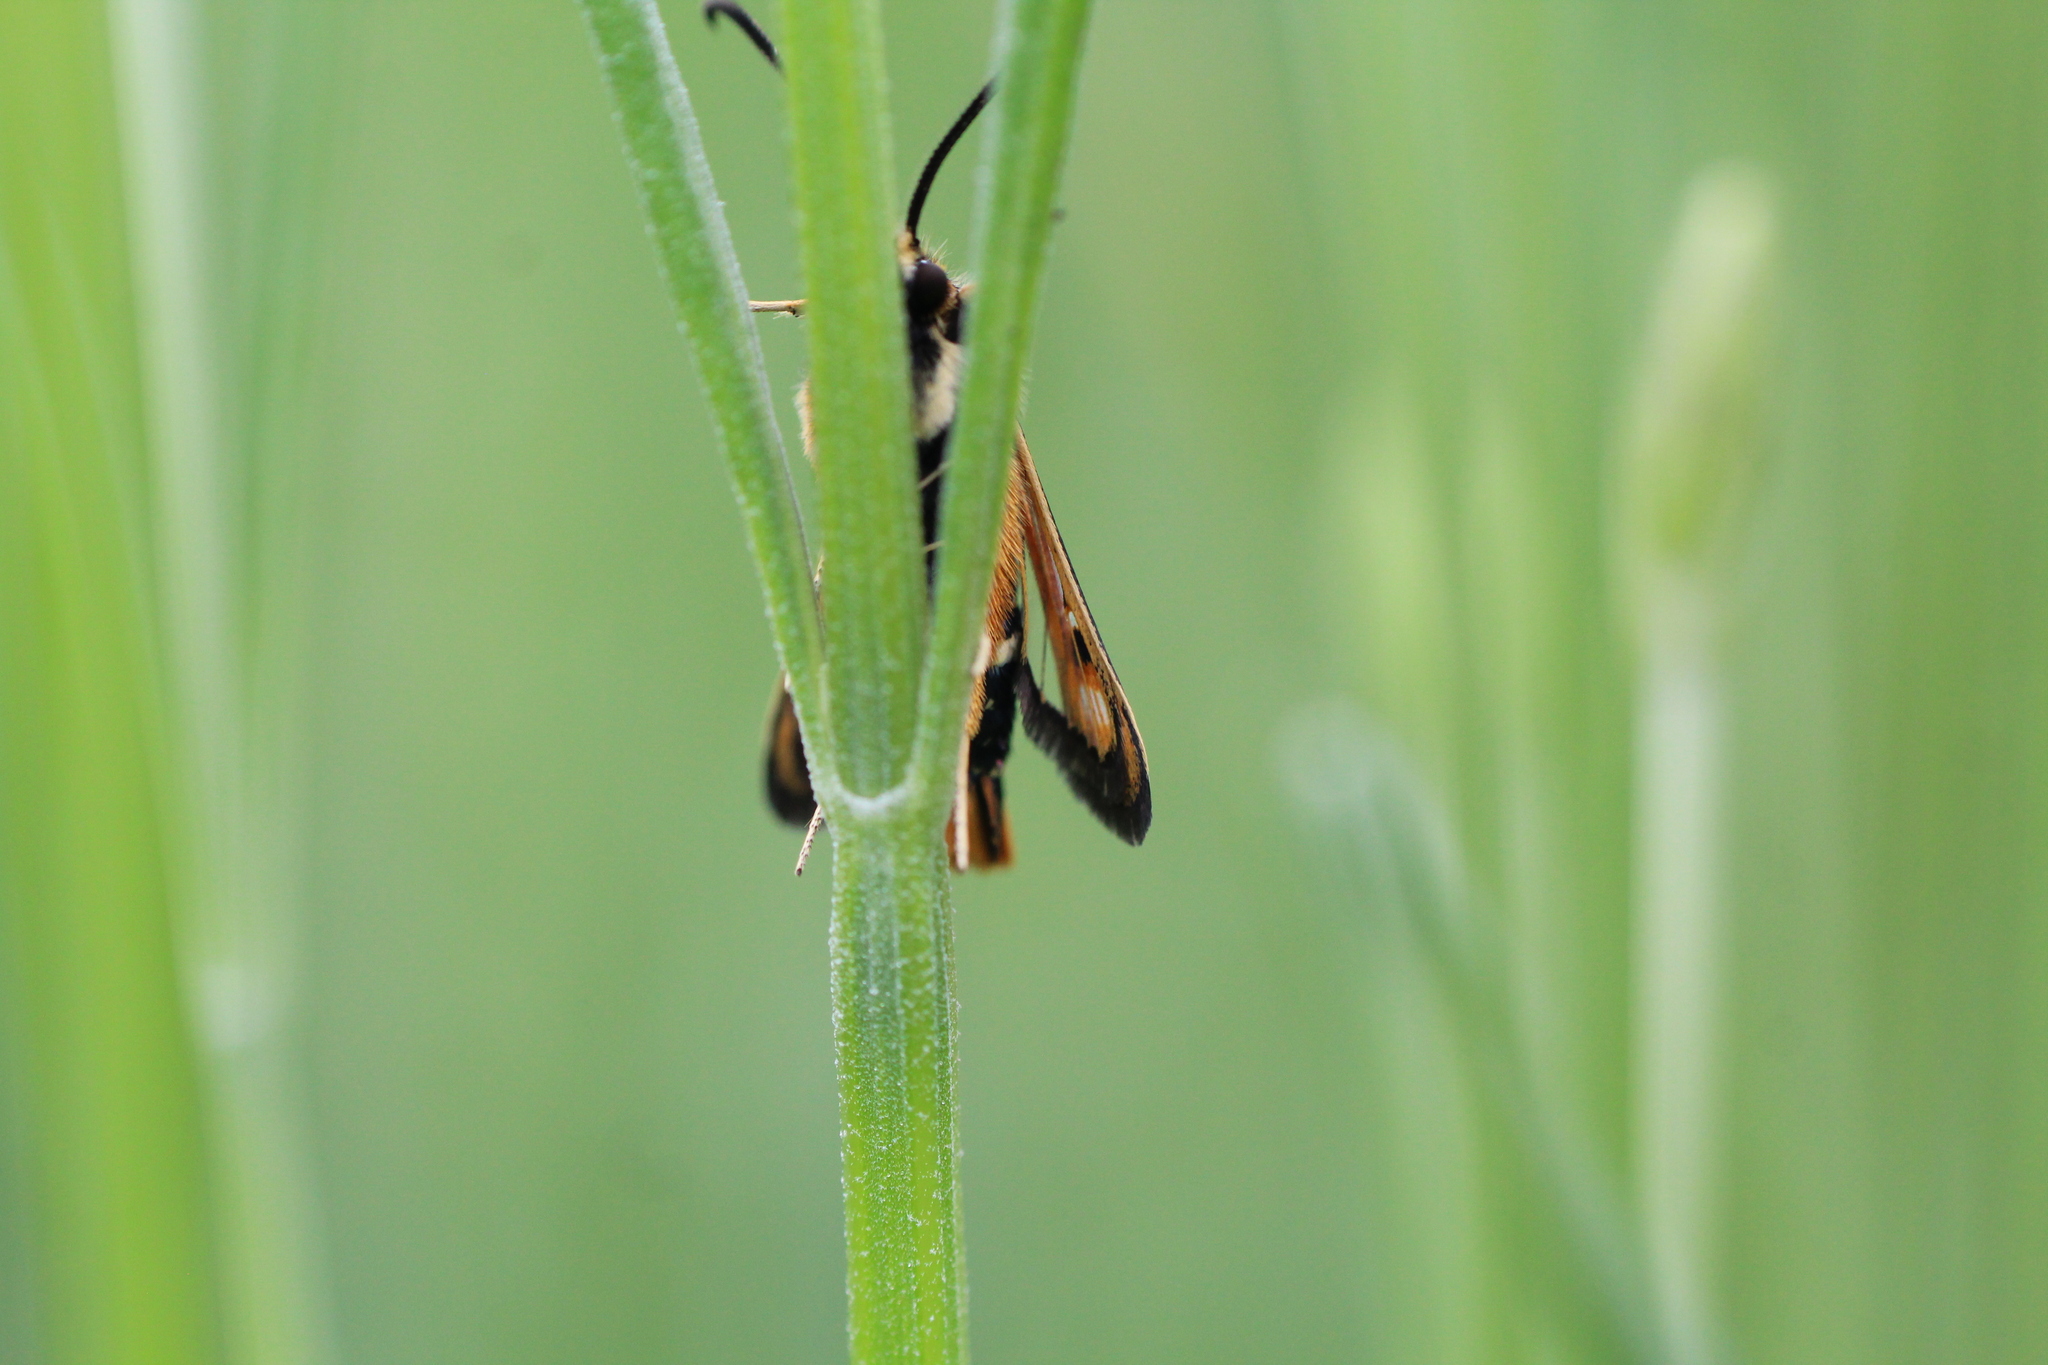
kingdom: Animalia
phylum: Arthropoda
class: Insecta
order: Lepidoptera
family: Sesiidae
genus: Pyropteron
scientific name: Pyropteron chrysidiforme
